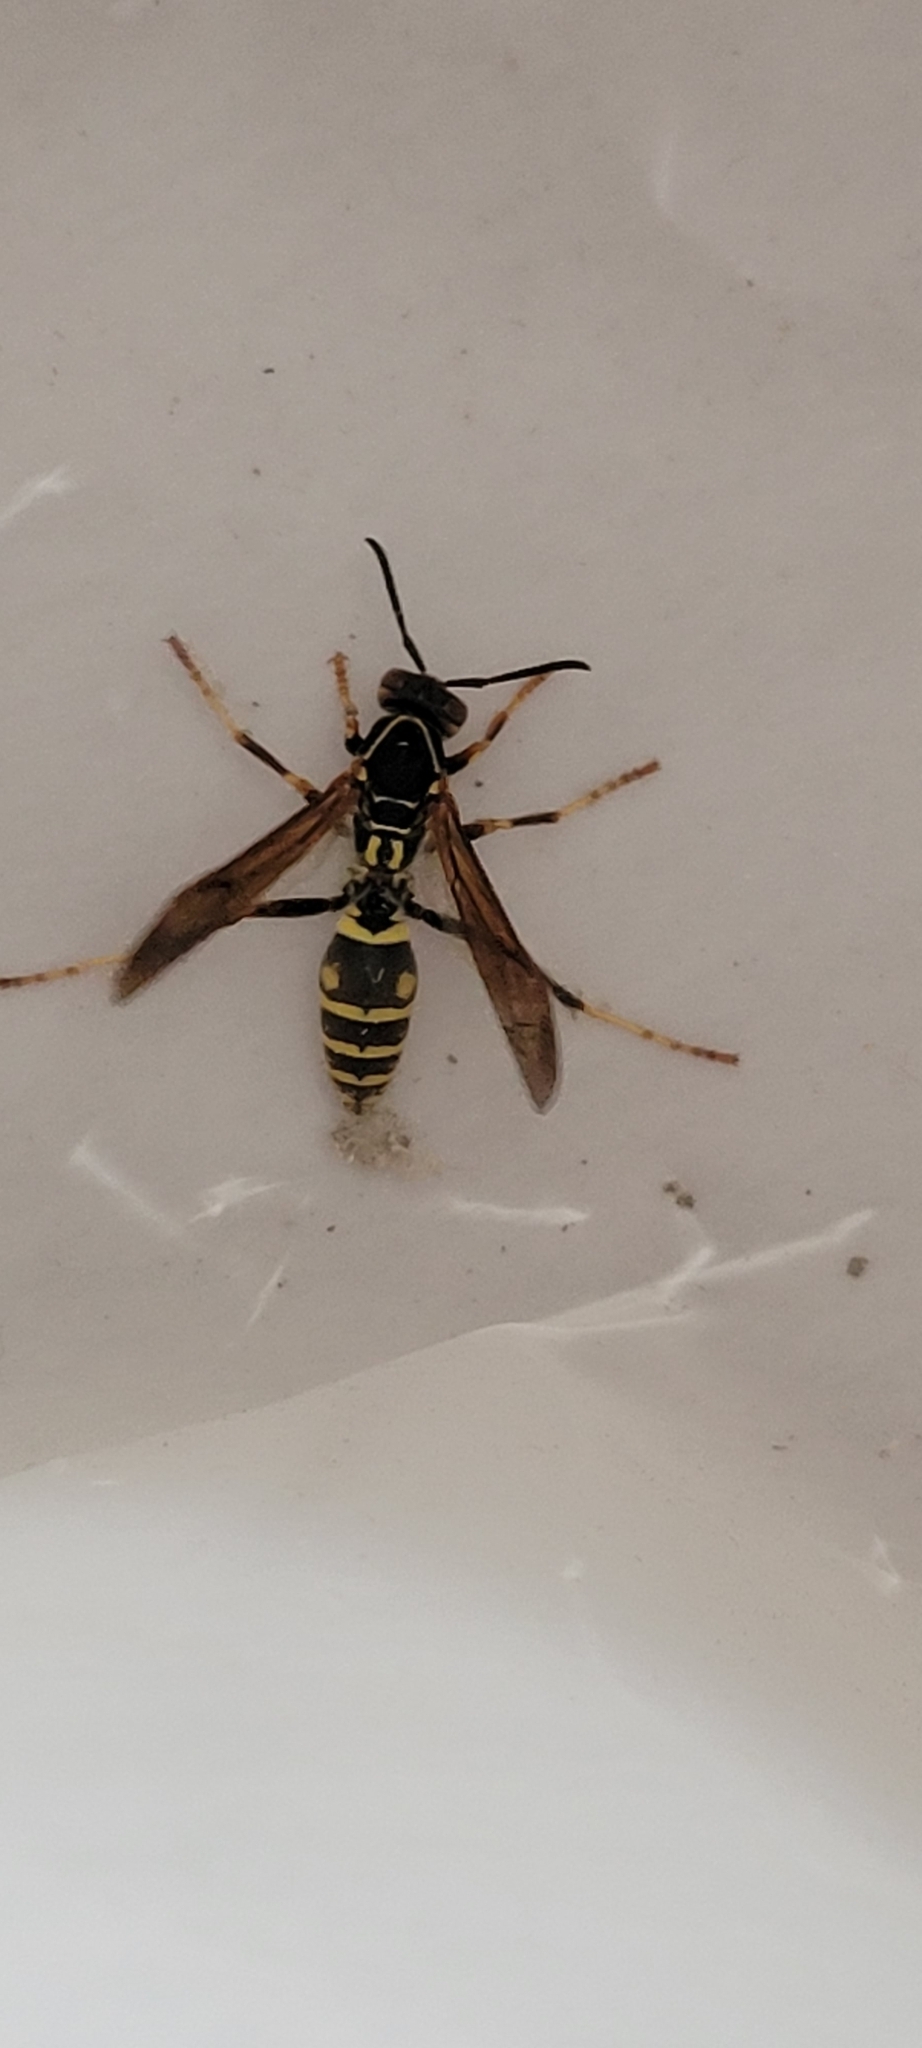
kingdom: Animalia
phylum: Arthropoda
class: Insecta
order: Hymenoptera
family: Eumenidae
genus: Polistes
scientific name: Polistes fuscatus
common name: Dark paper wasp
